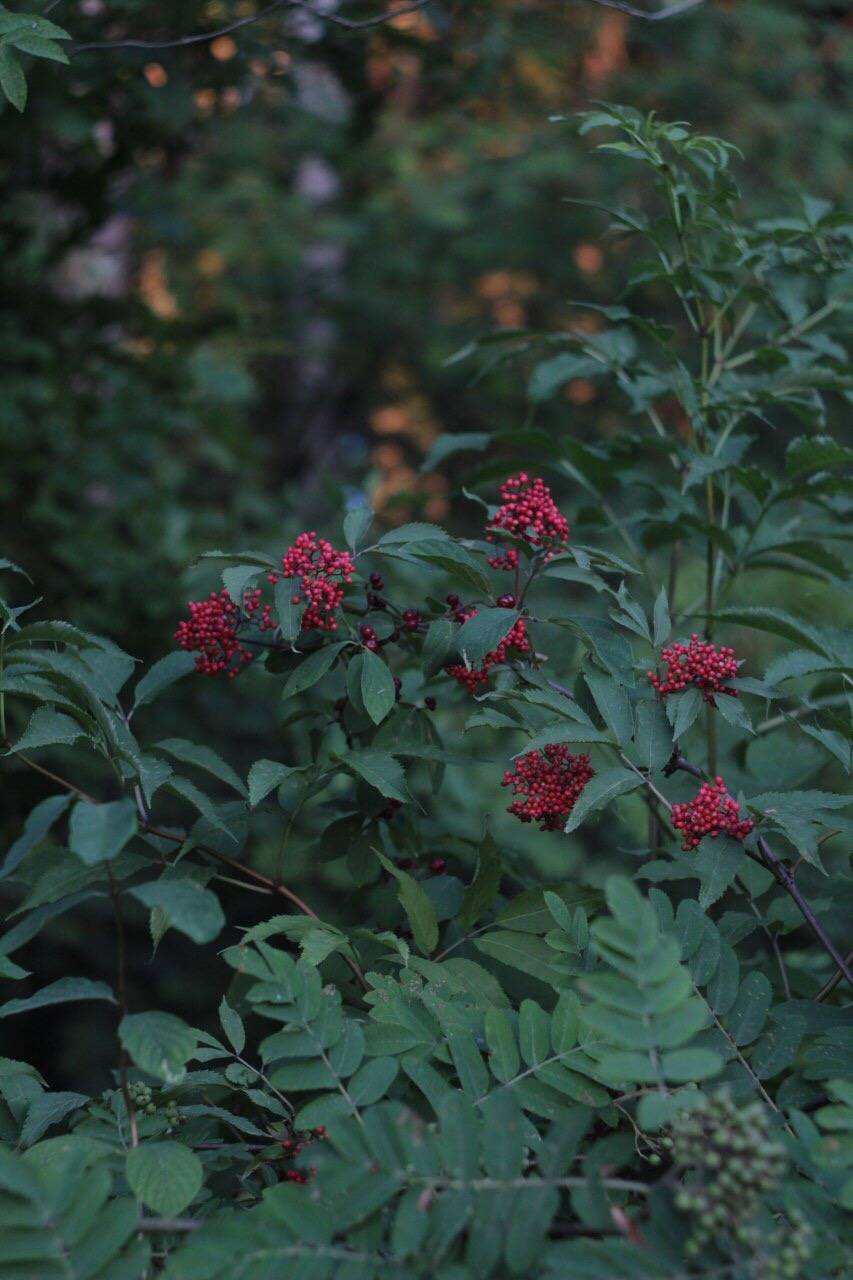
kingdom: Plantae
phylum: Tracheophyta
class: Magnoliopsida
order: Dipsacales
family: Viburnaceae
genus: Sambucus
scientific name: Sambucus racemosa
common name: Red-berried elder
